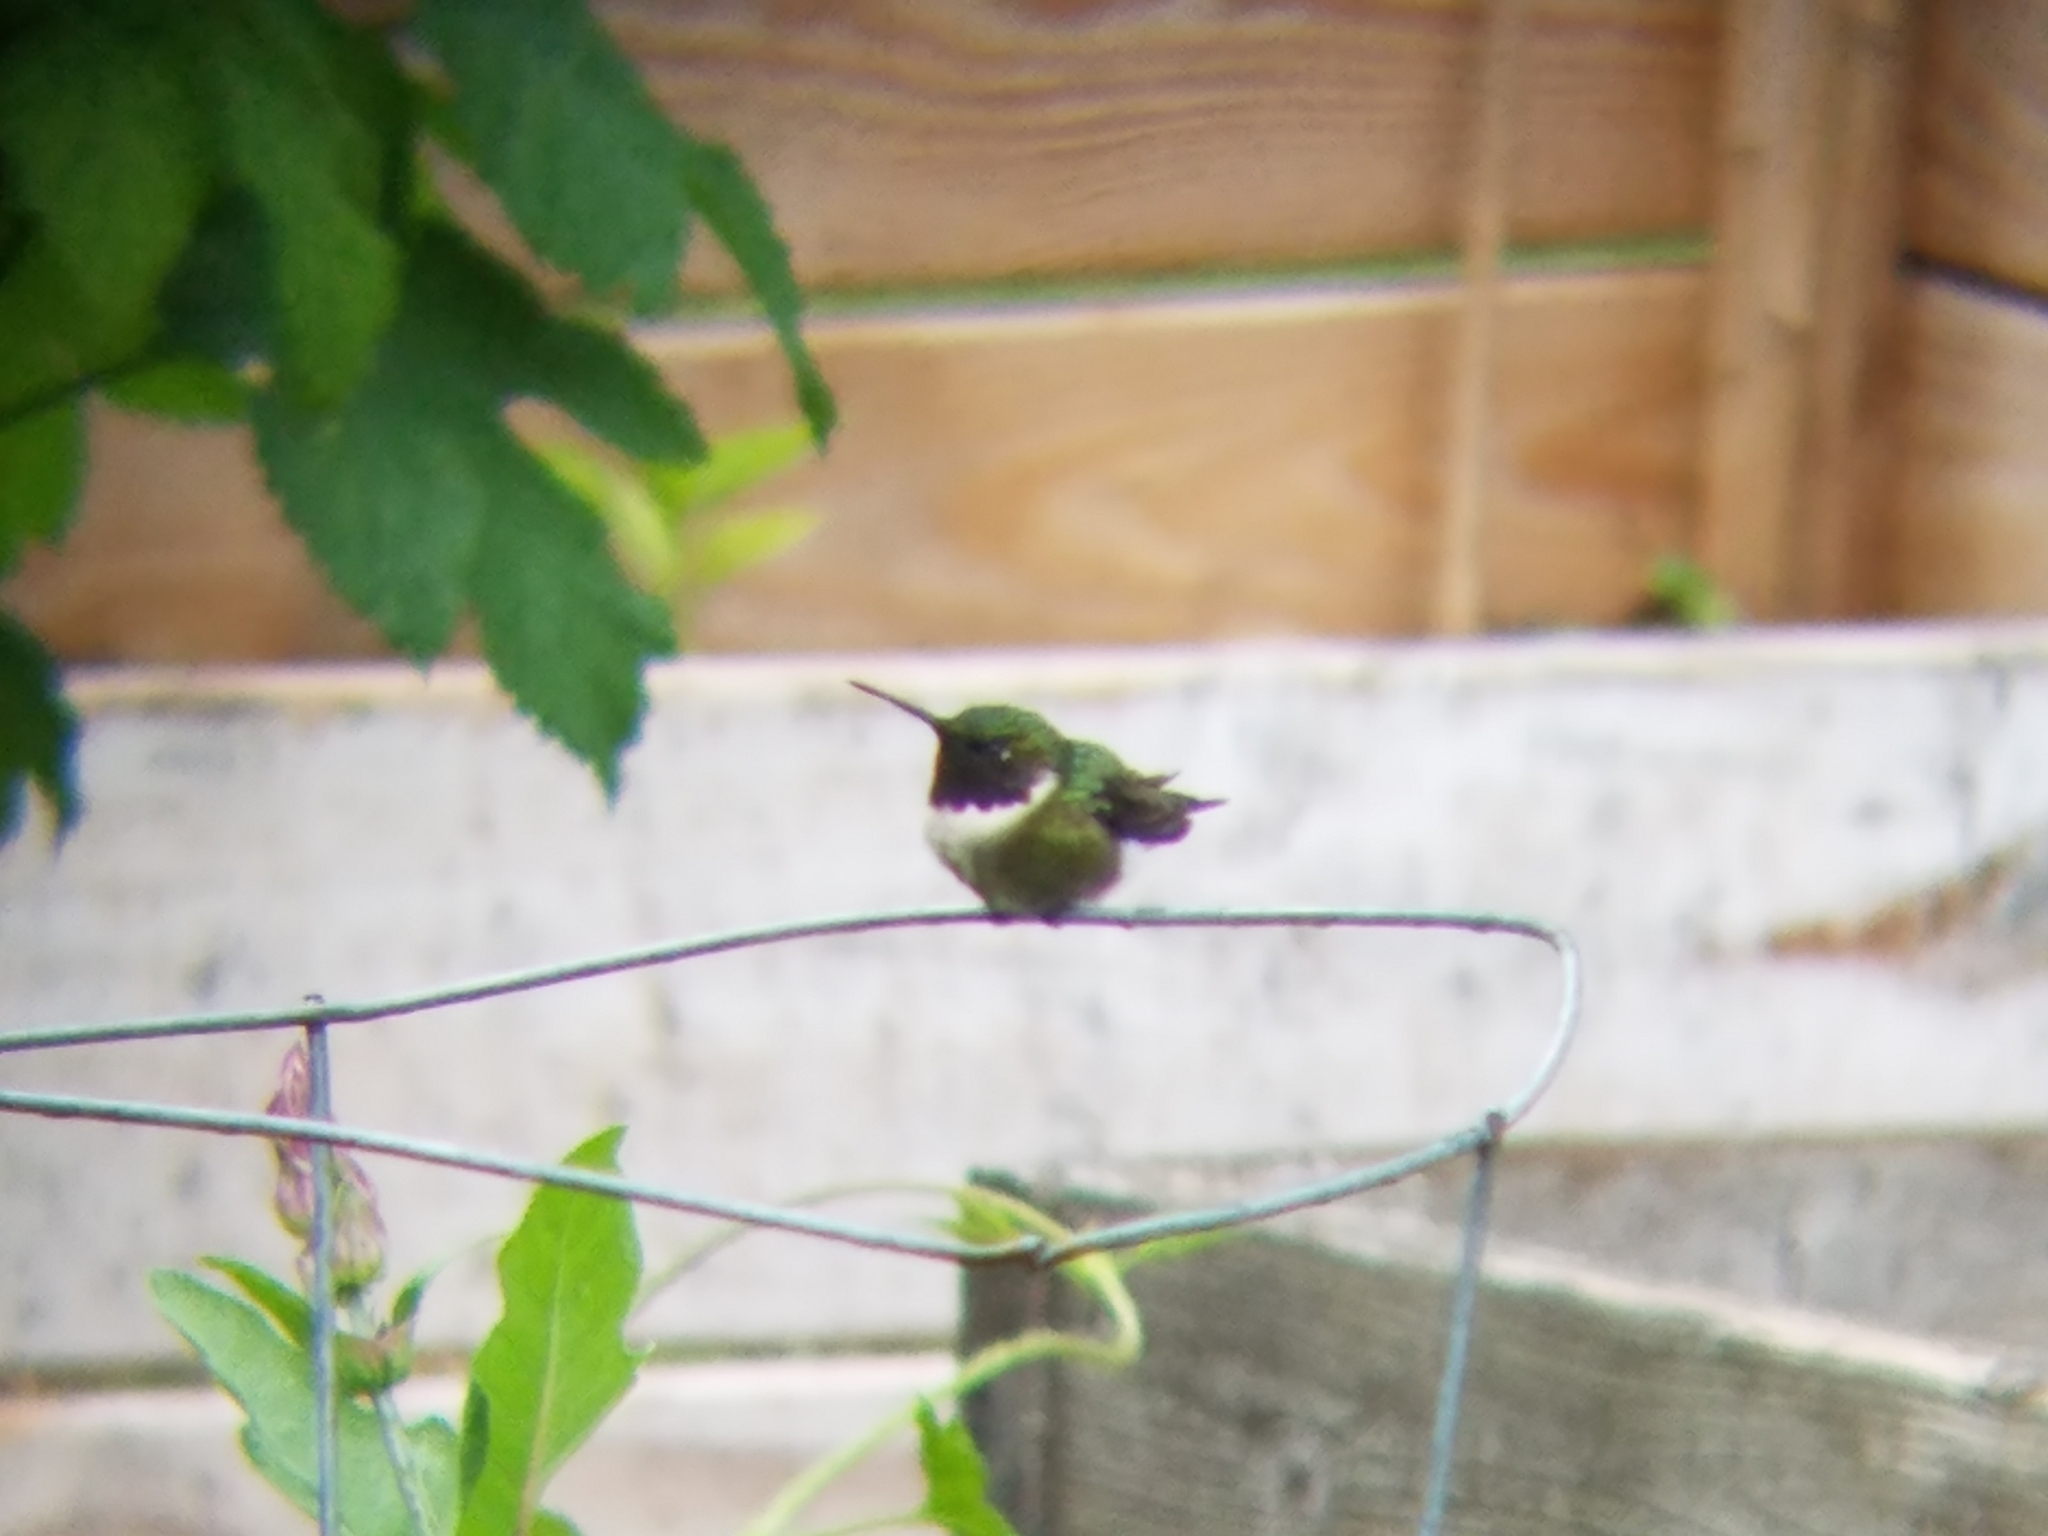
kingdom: Animalia
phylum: Chordata
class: Aves
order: Apodiformes
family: Trochilidae
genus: Archilochus
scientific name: Archilochus colubris
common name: Ruby-throated hummingbird
